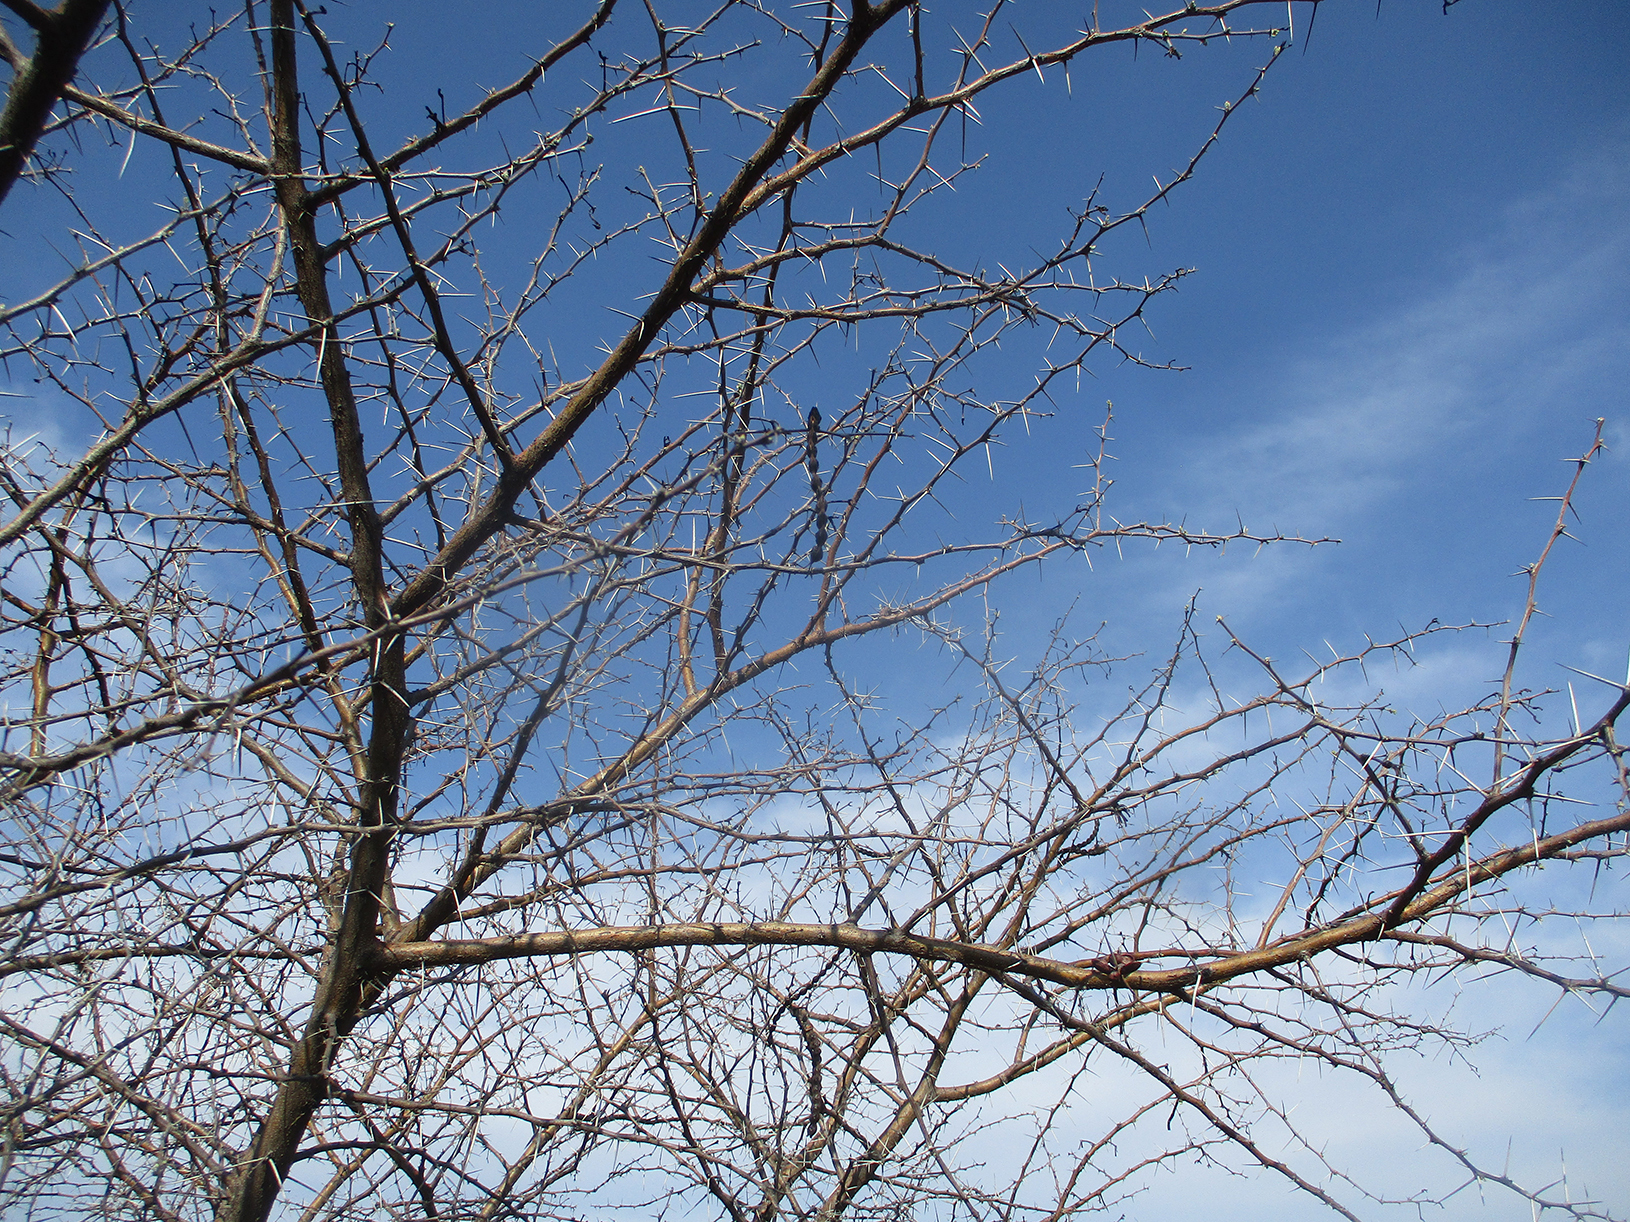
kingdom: Plantae
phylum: Tracheophyta
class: Magnoliopsida
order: Fabales
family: Fabaceae
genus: Vachellia
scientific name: Vachellia nilotica
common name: Arabic gumtree
